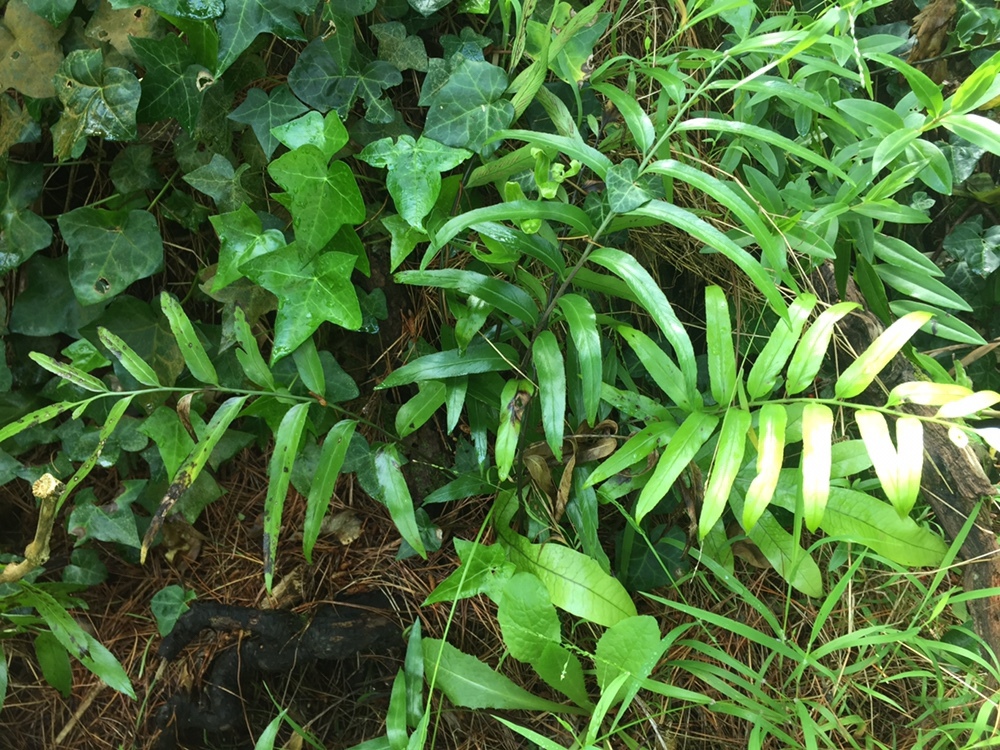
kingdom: Plantae
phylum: Tracheophyta
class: Polypodiopsida
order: Polypodiales
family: Aspleniaceae
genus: Asplenium
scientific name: Asplenium oblongifolium
